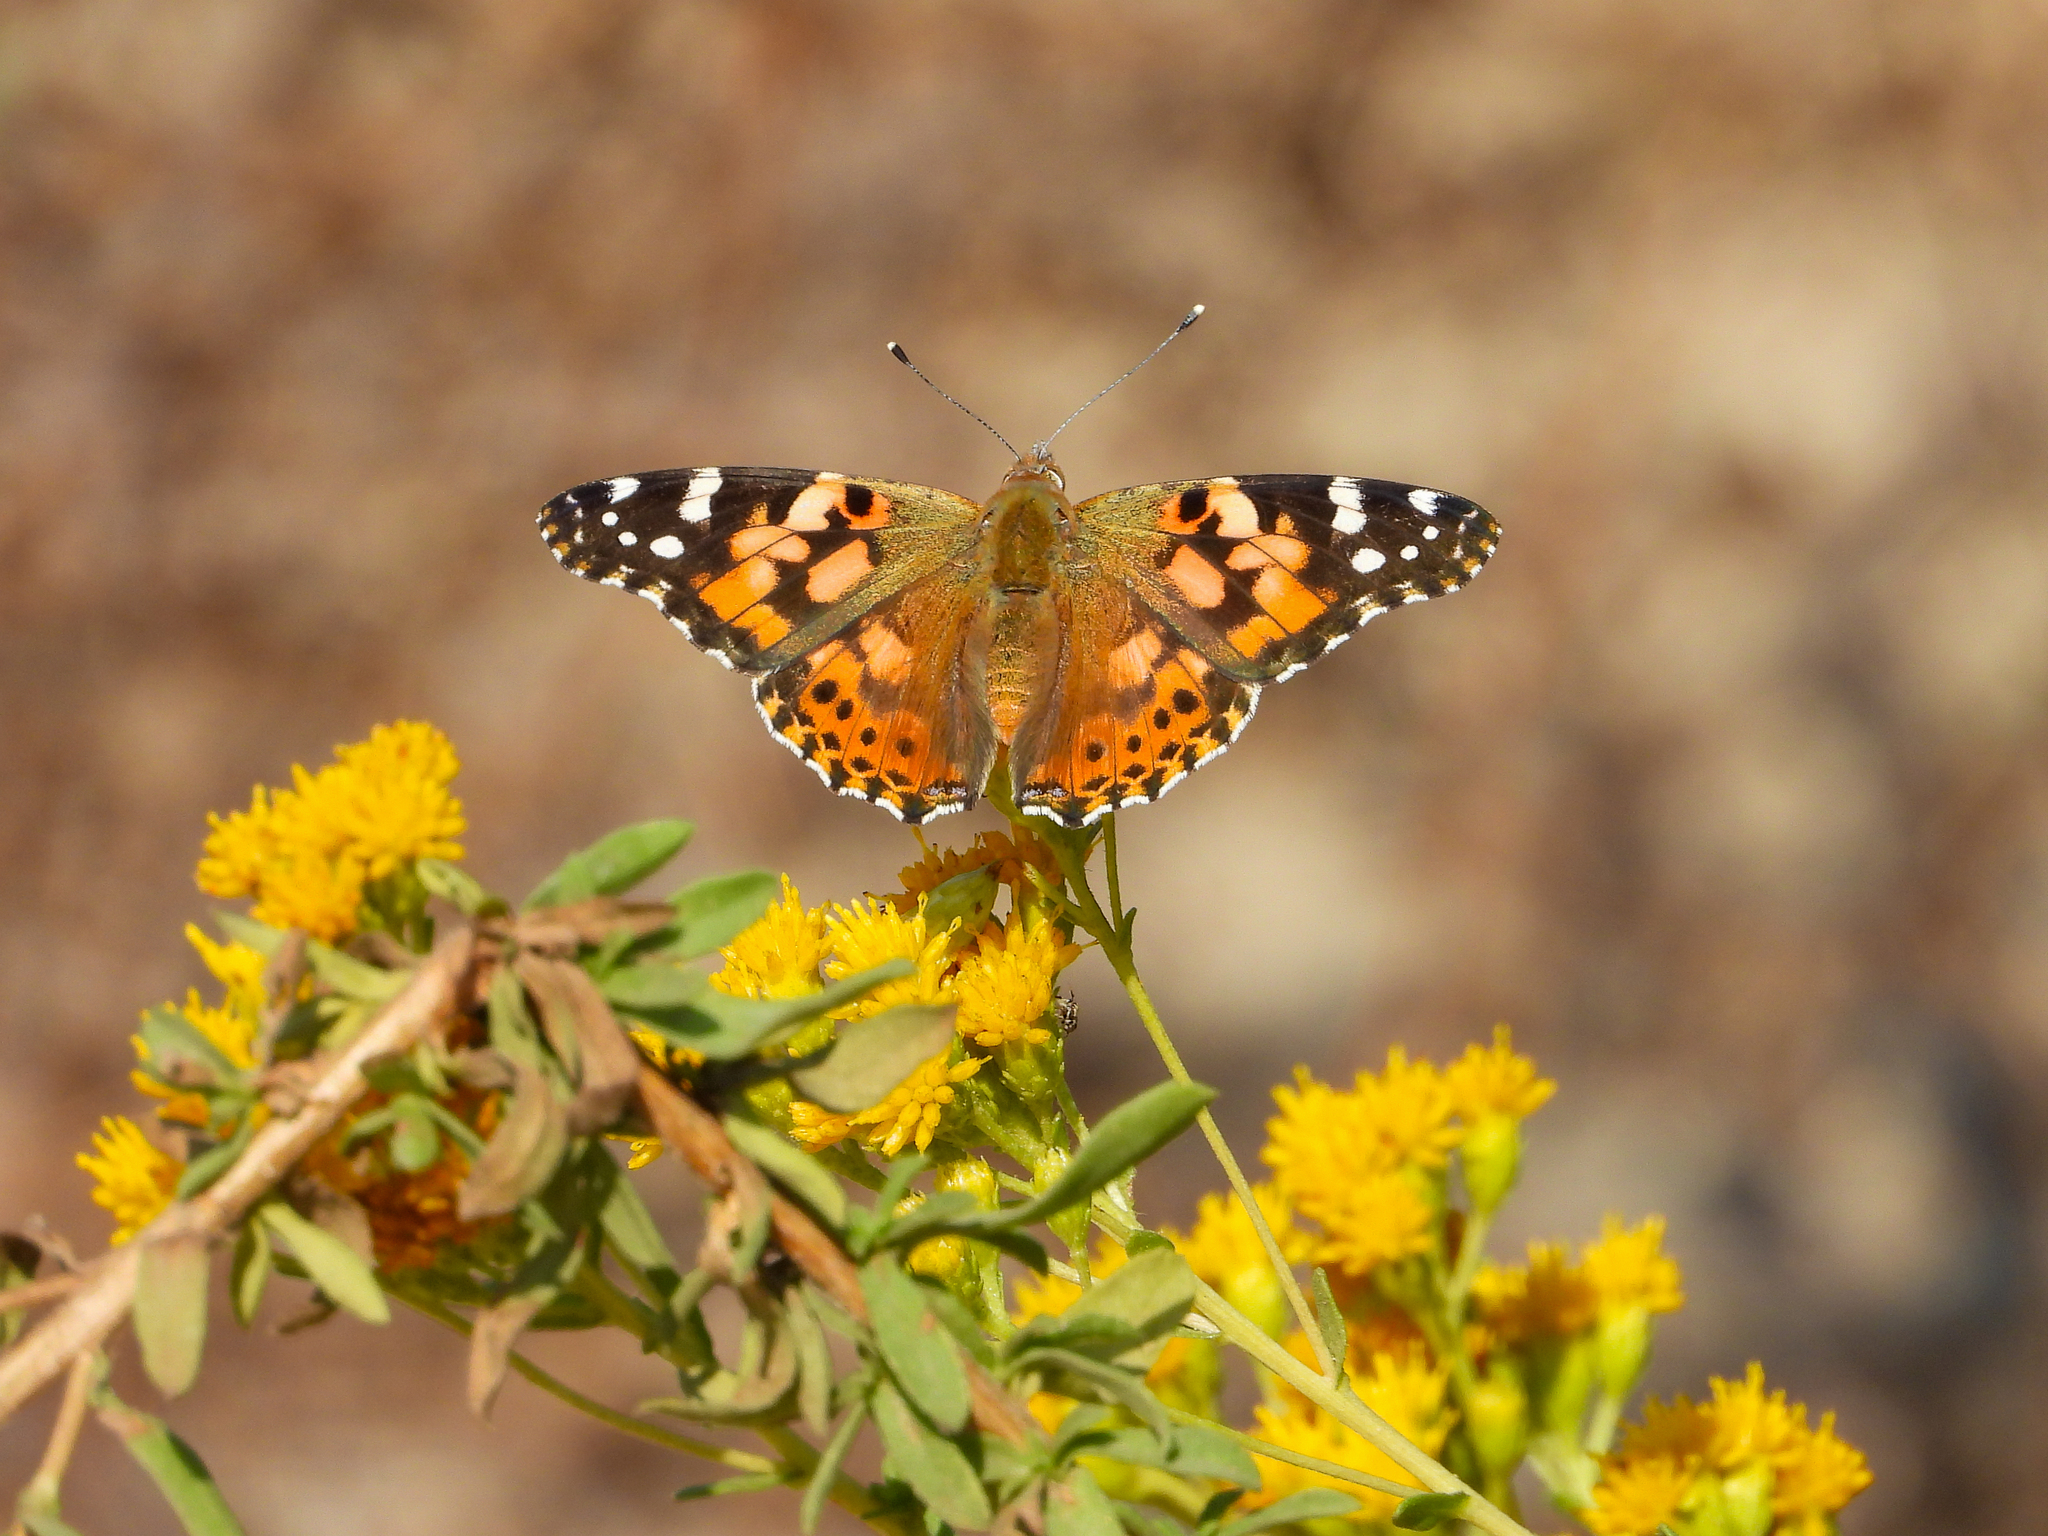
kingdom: Animalia
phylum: Arthropoda
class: Insecta
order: Lepidoptera
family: Nymphalidae
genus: Vanessa
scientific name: Vanessa cardui
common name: Painted lady
